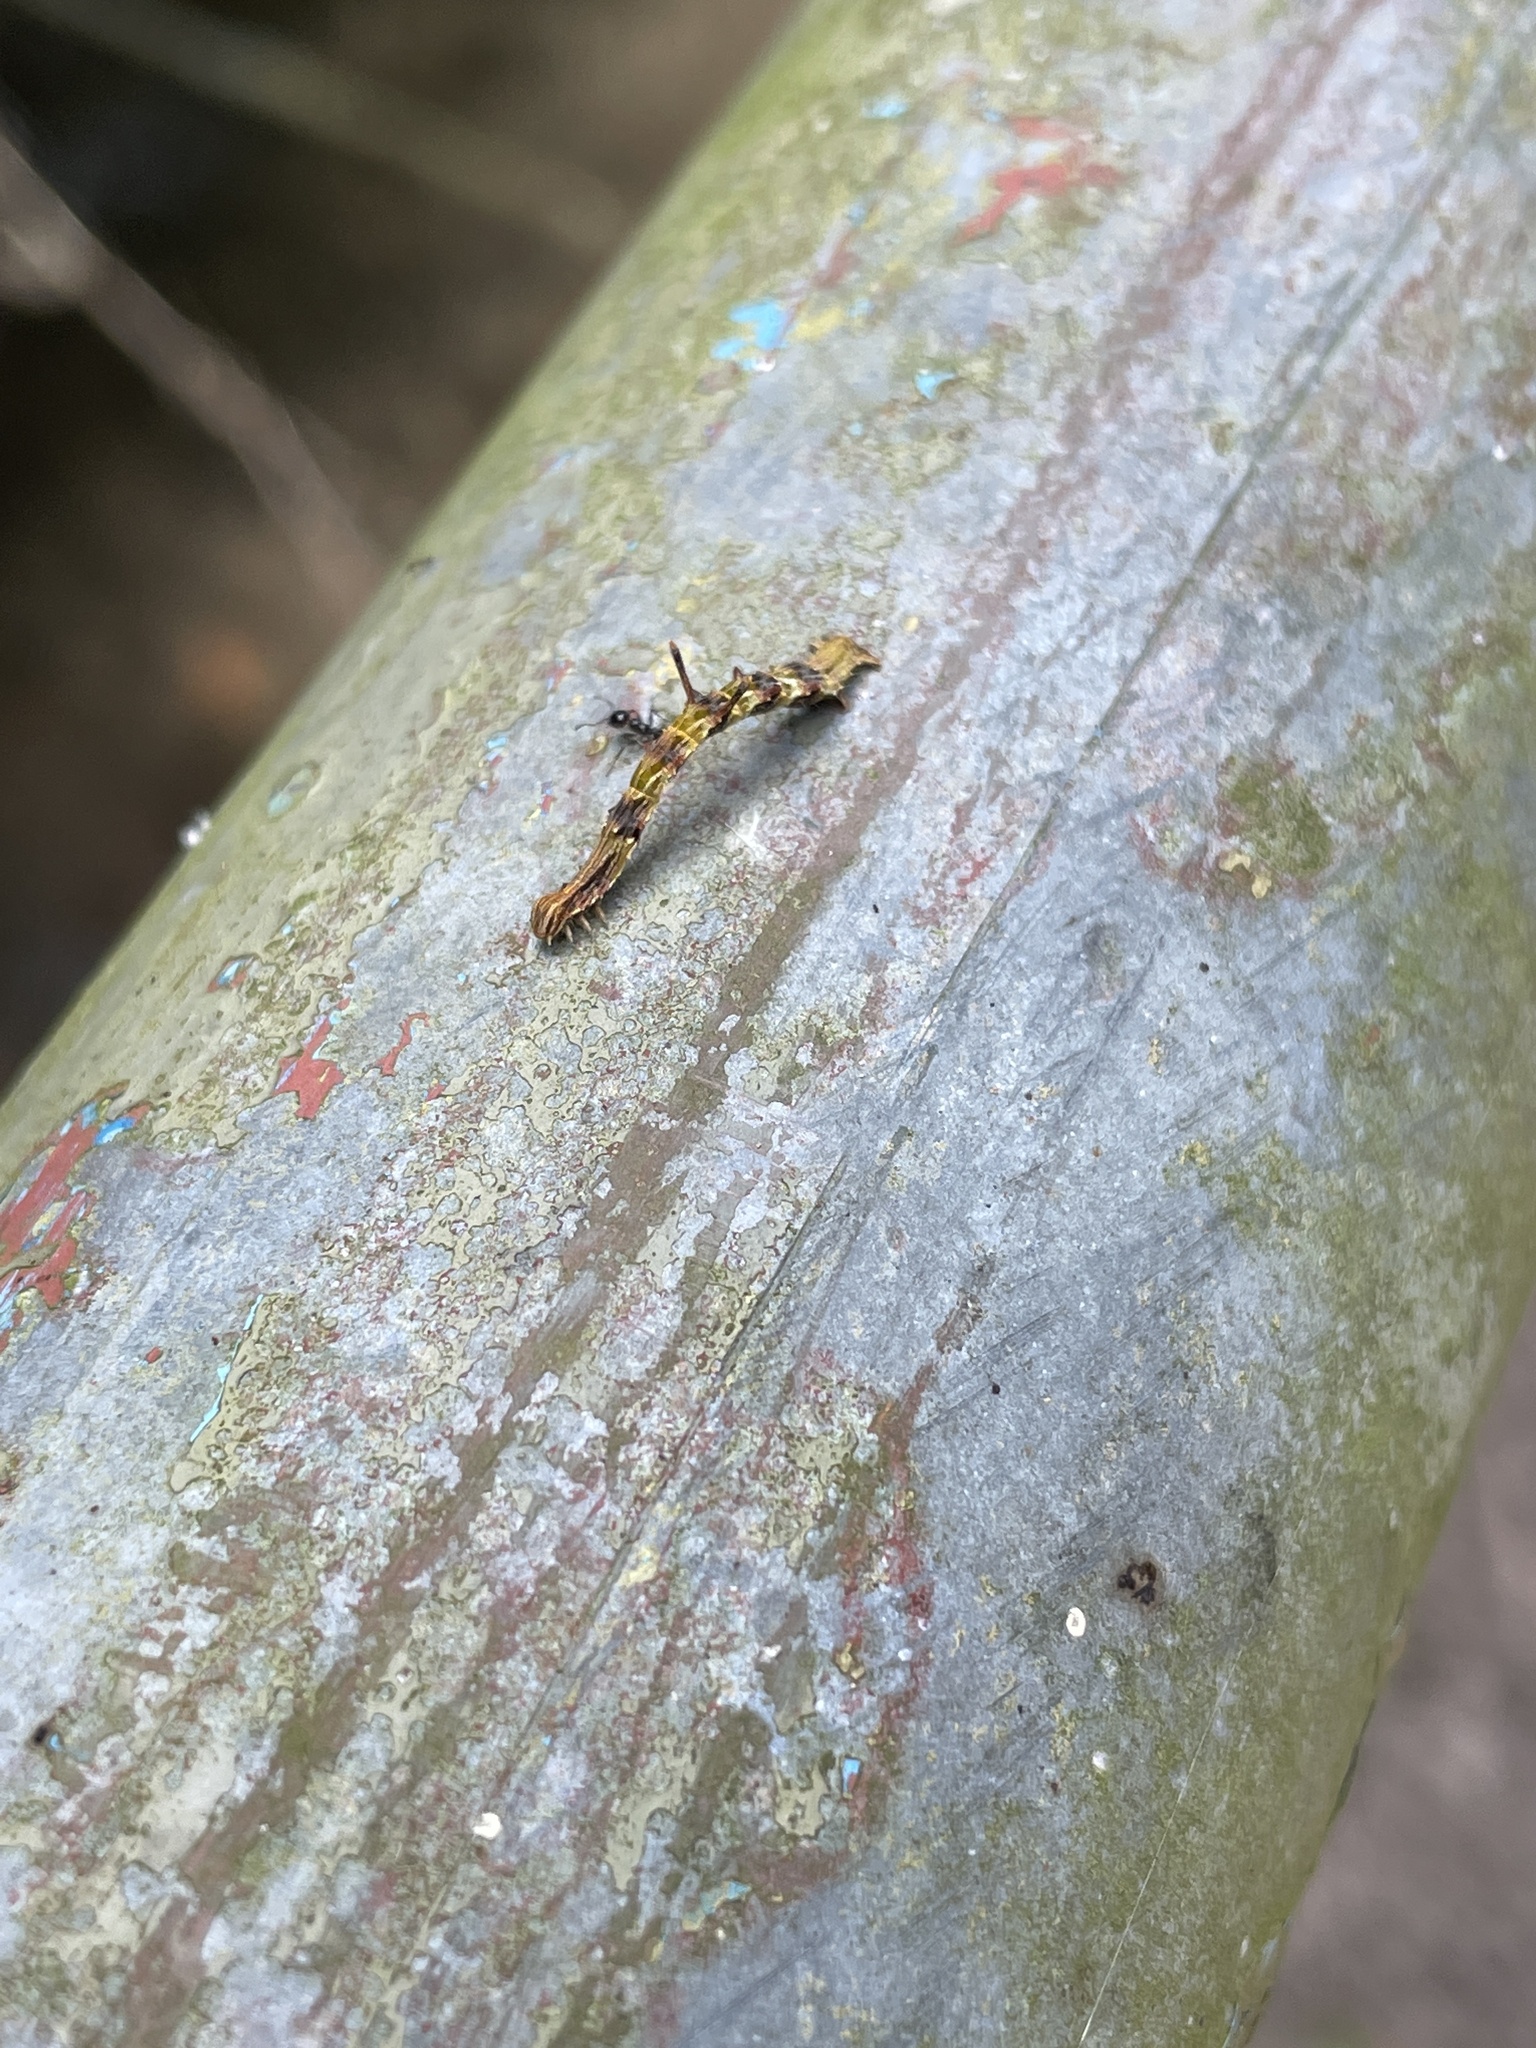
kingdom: Animalia
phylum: Arthropoda
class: Insecta
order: Lepidoptera
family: Geometridae
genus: Traminda
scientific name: Traminda aventiaria
